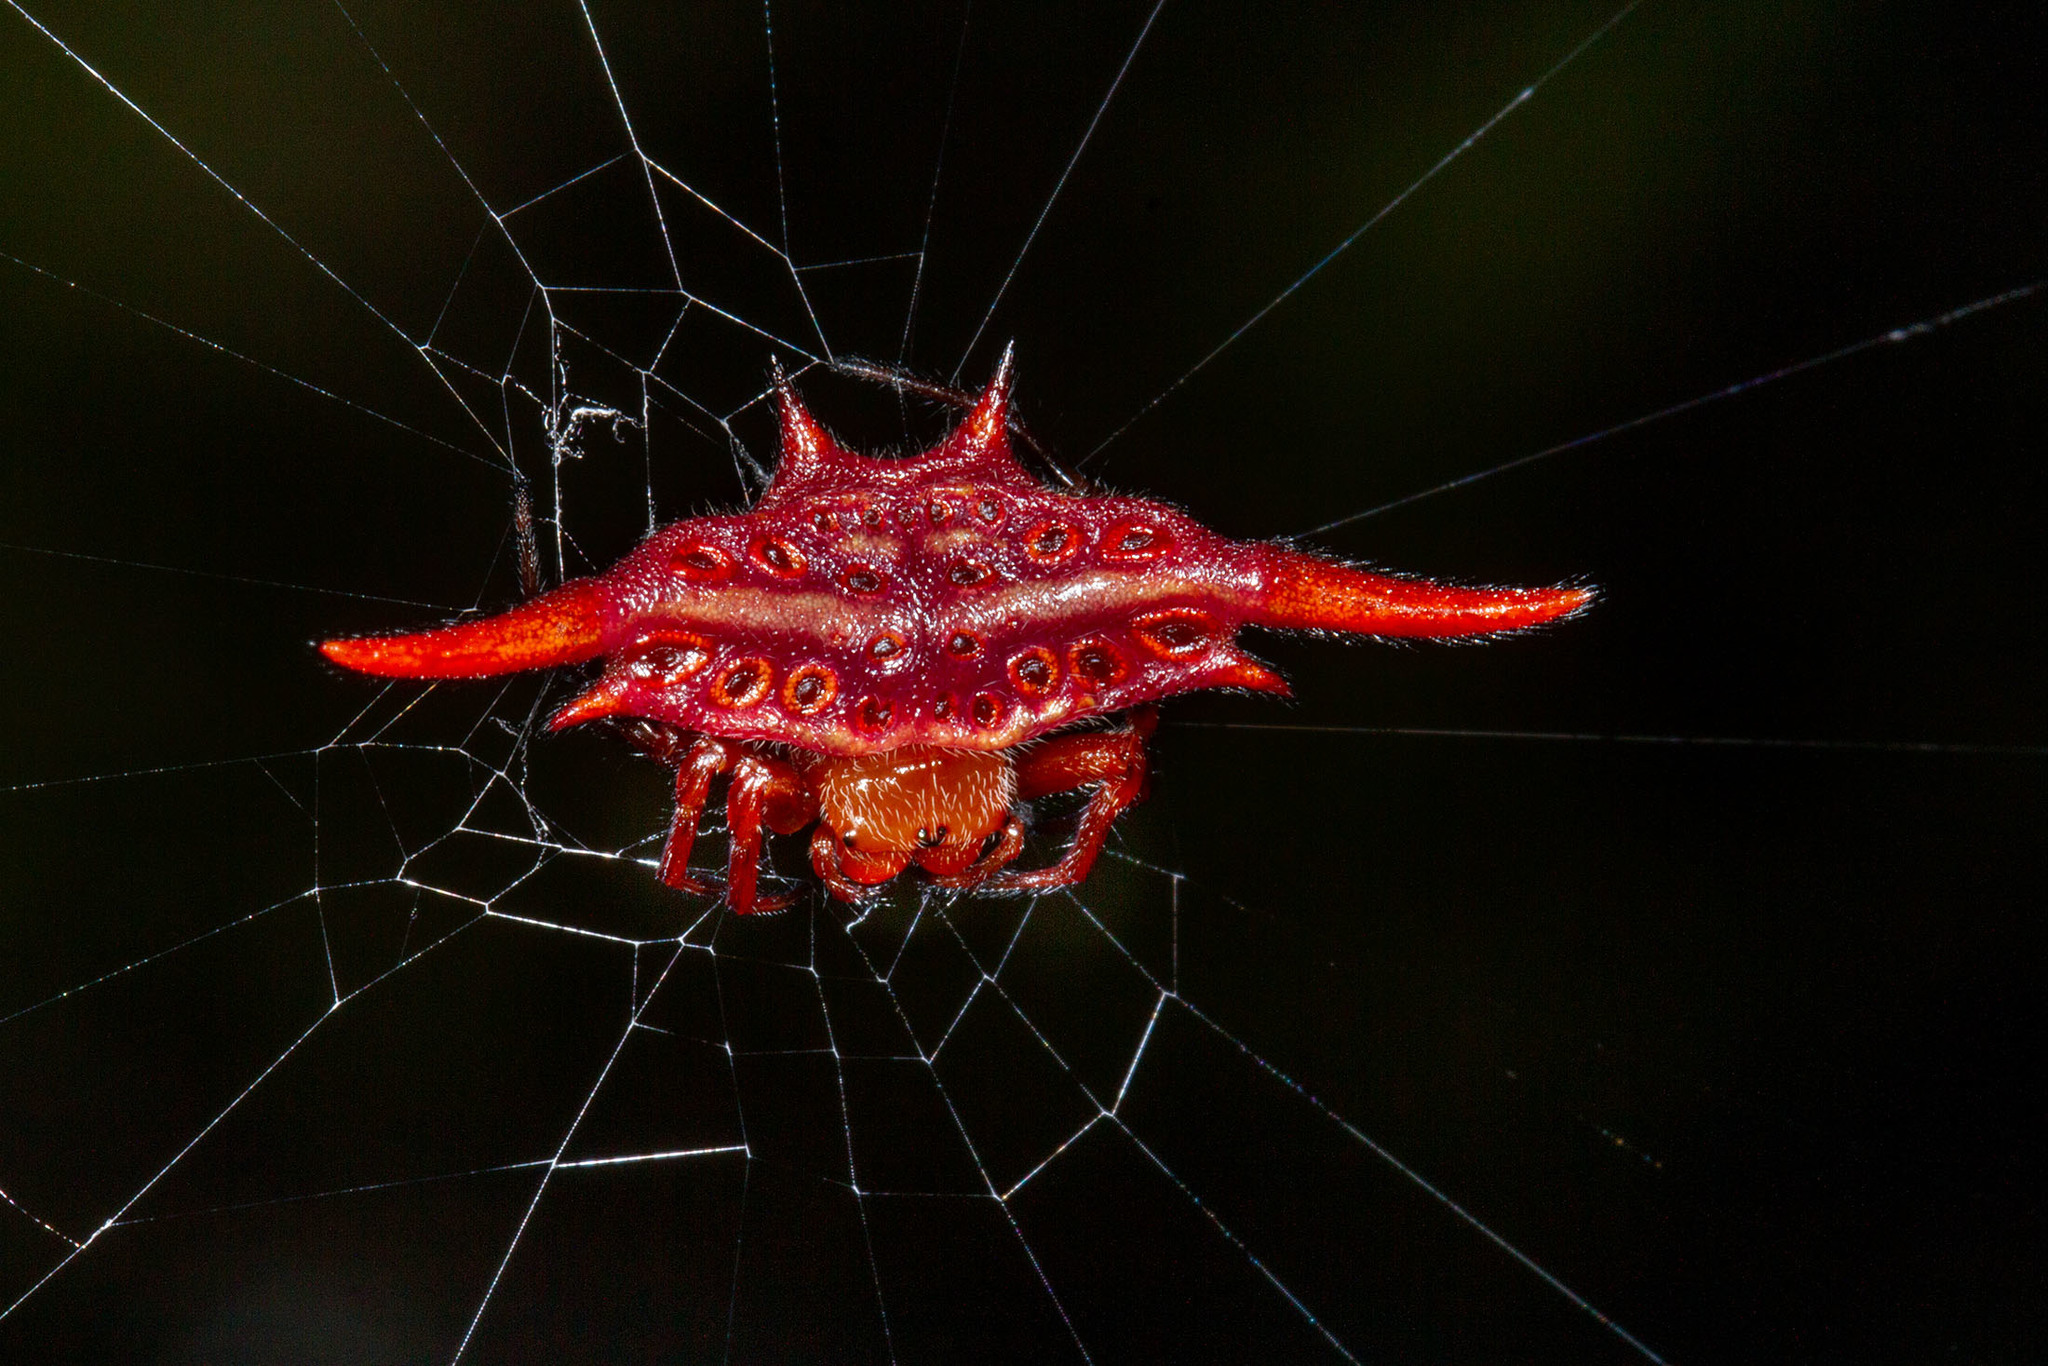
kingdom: Animalia
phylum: Arthropoda
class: Arachnida
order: Araneae
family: Araneidae
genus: Gasteracantha
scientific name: Gasteracantha versicolor
